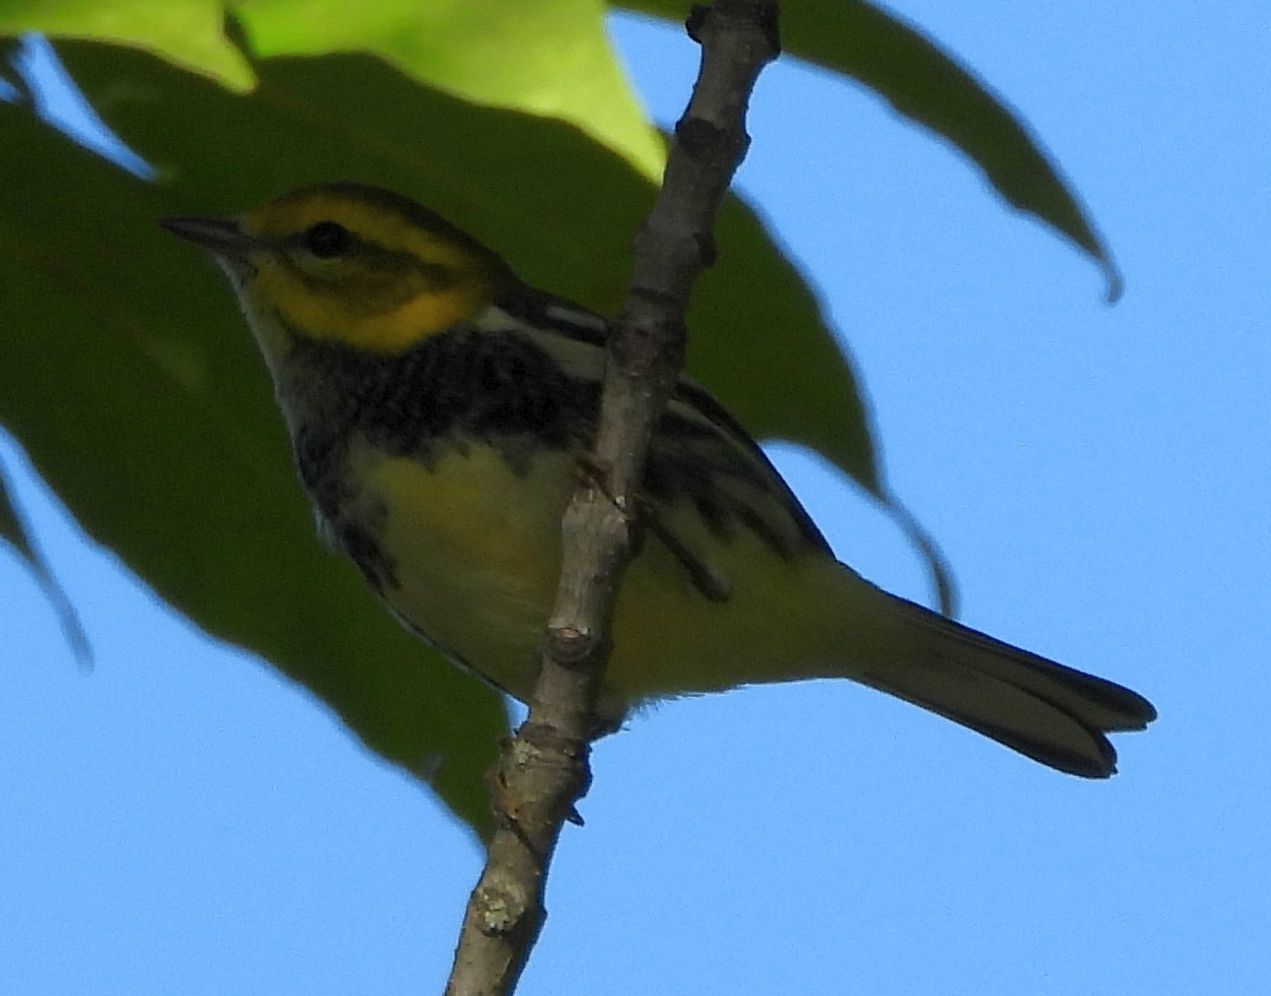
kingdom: Animalia
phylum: Chordata
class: Aves
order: Passeriformes
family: Parulidae
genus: Setophaga
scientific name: Setophaga virens
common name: Black-throated green warbler
